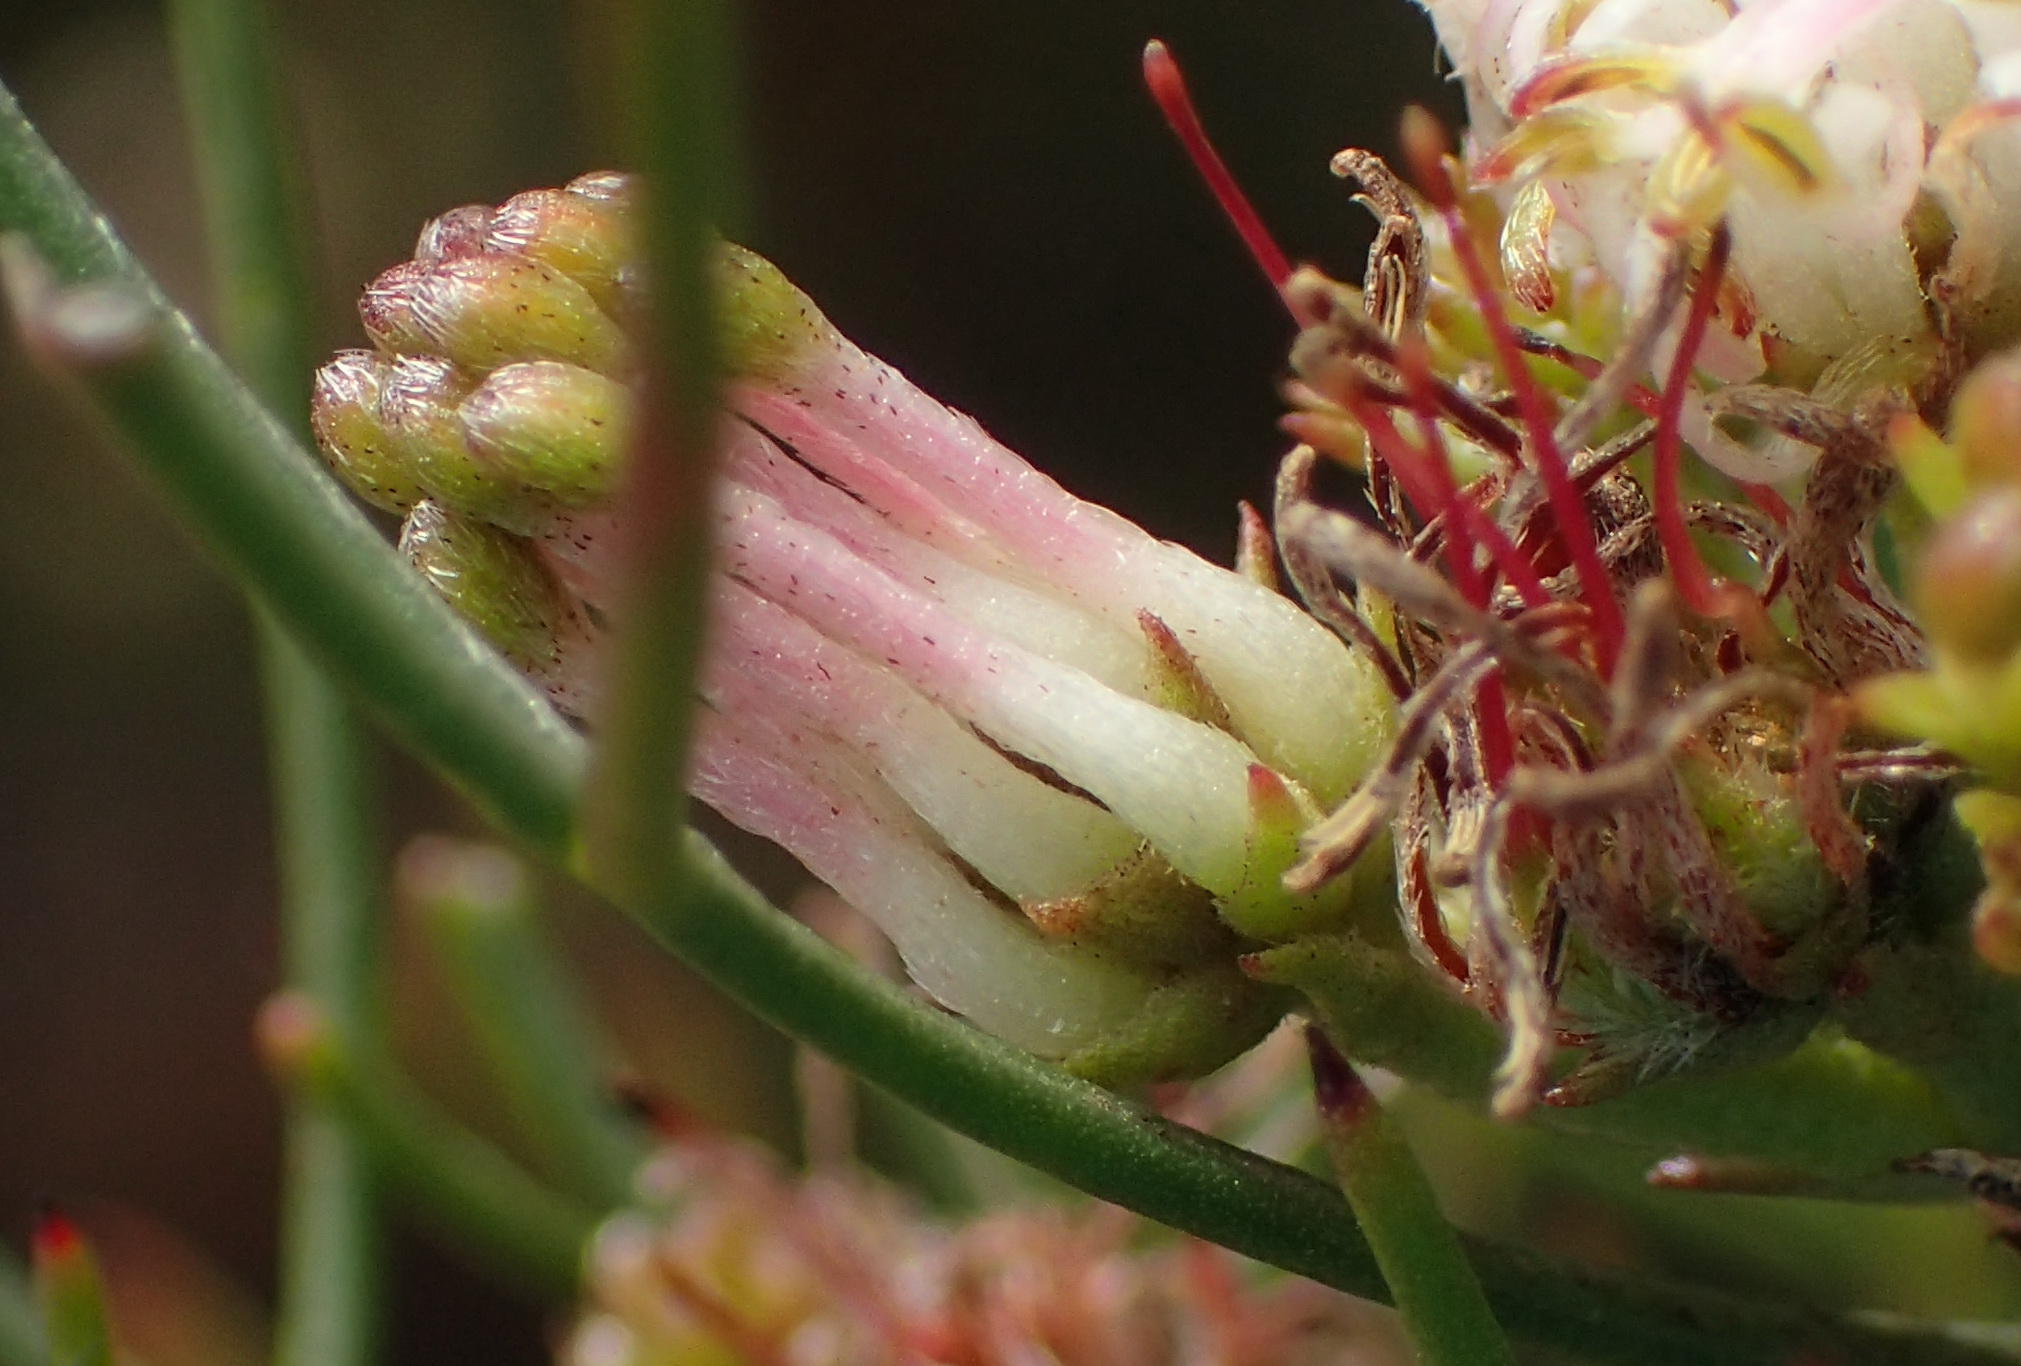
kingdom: Plantae
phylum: Tracheophyta
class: Magnoliopsida
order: Proteales
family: Proteaceae
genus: Serruria
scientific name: Serruria fasciflora
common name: Common pin spiderhead
